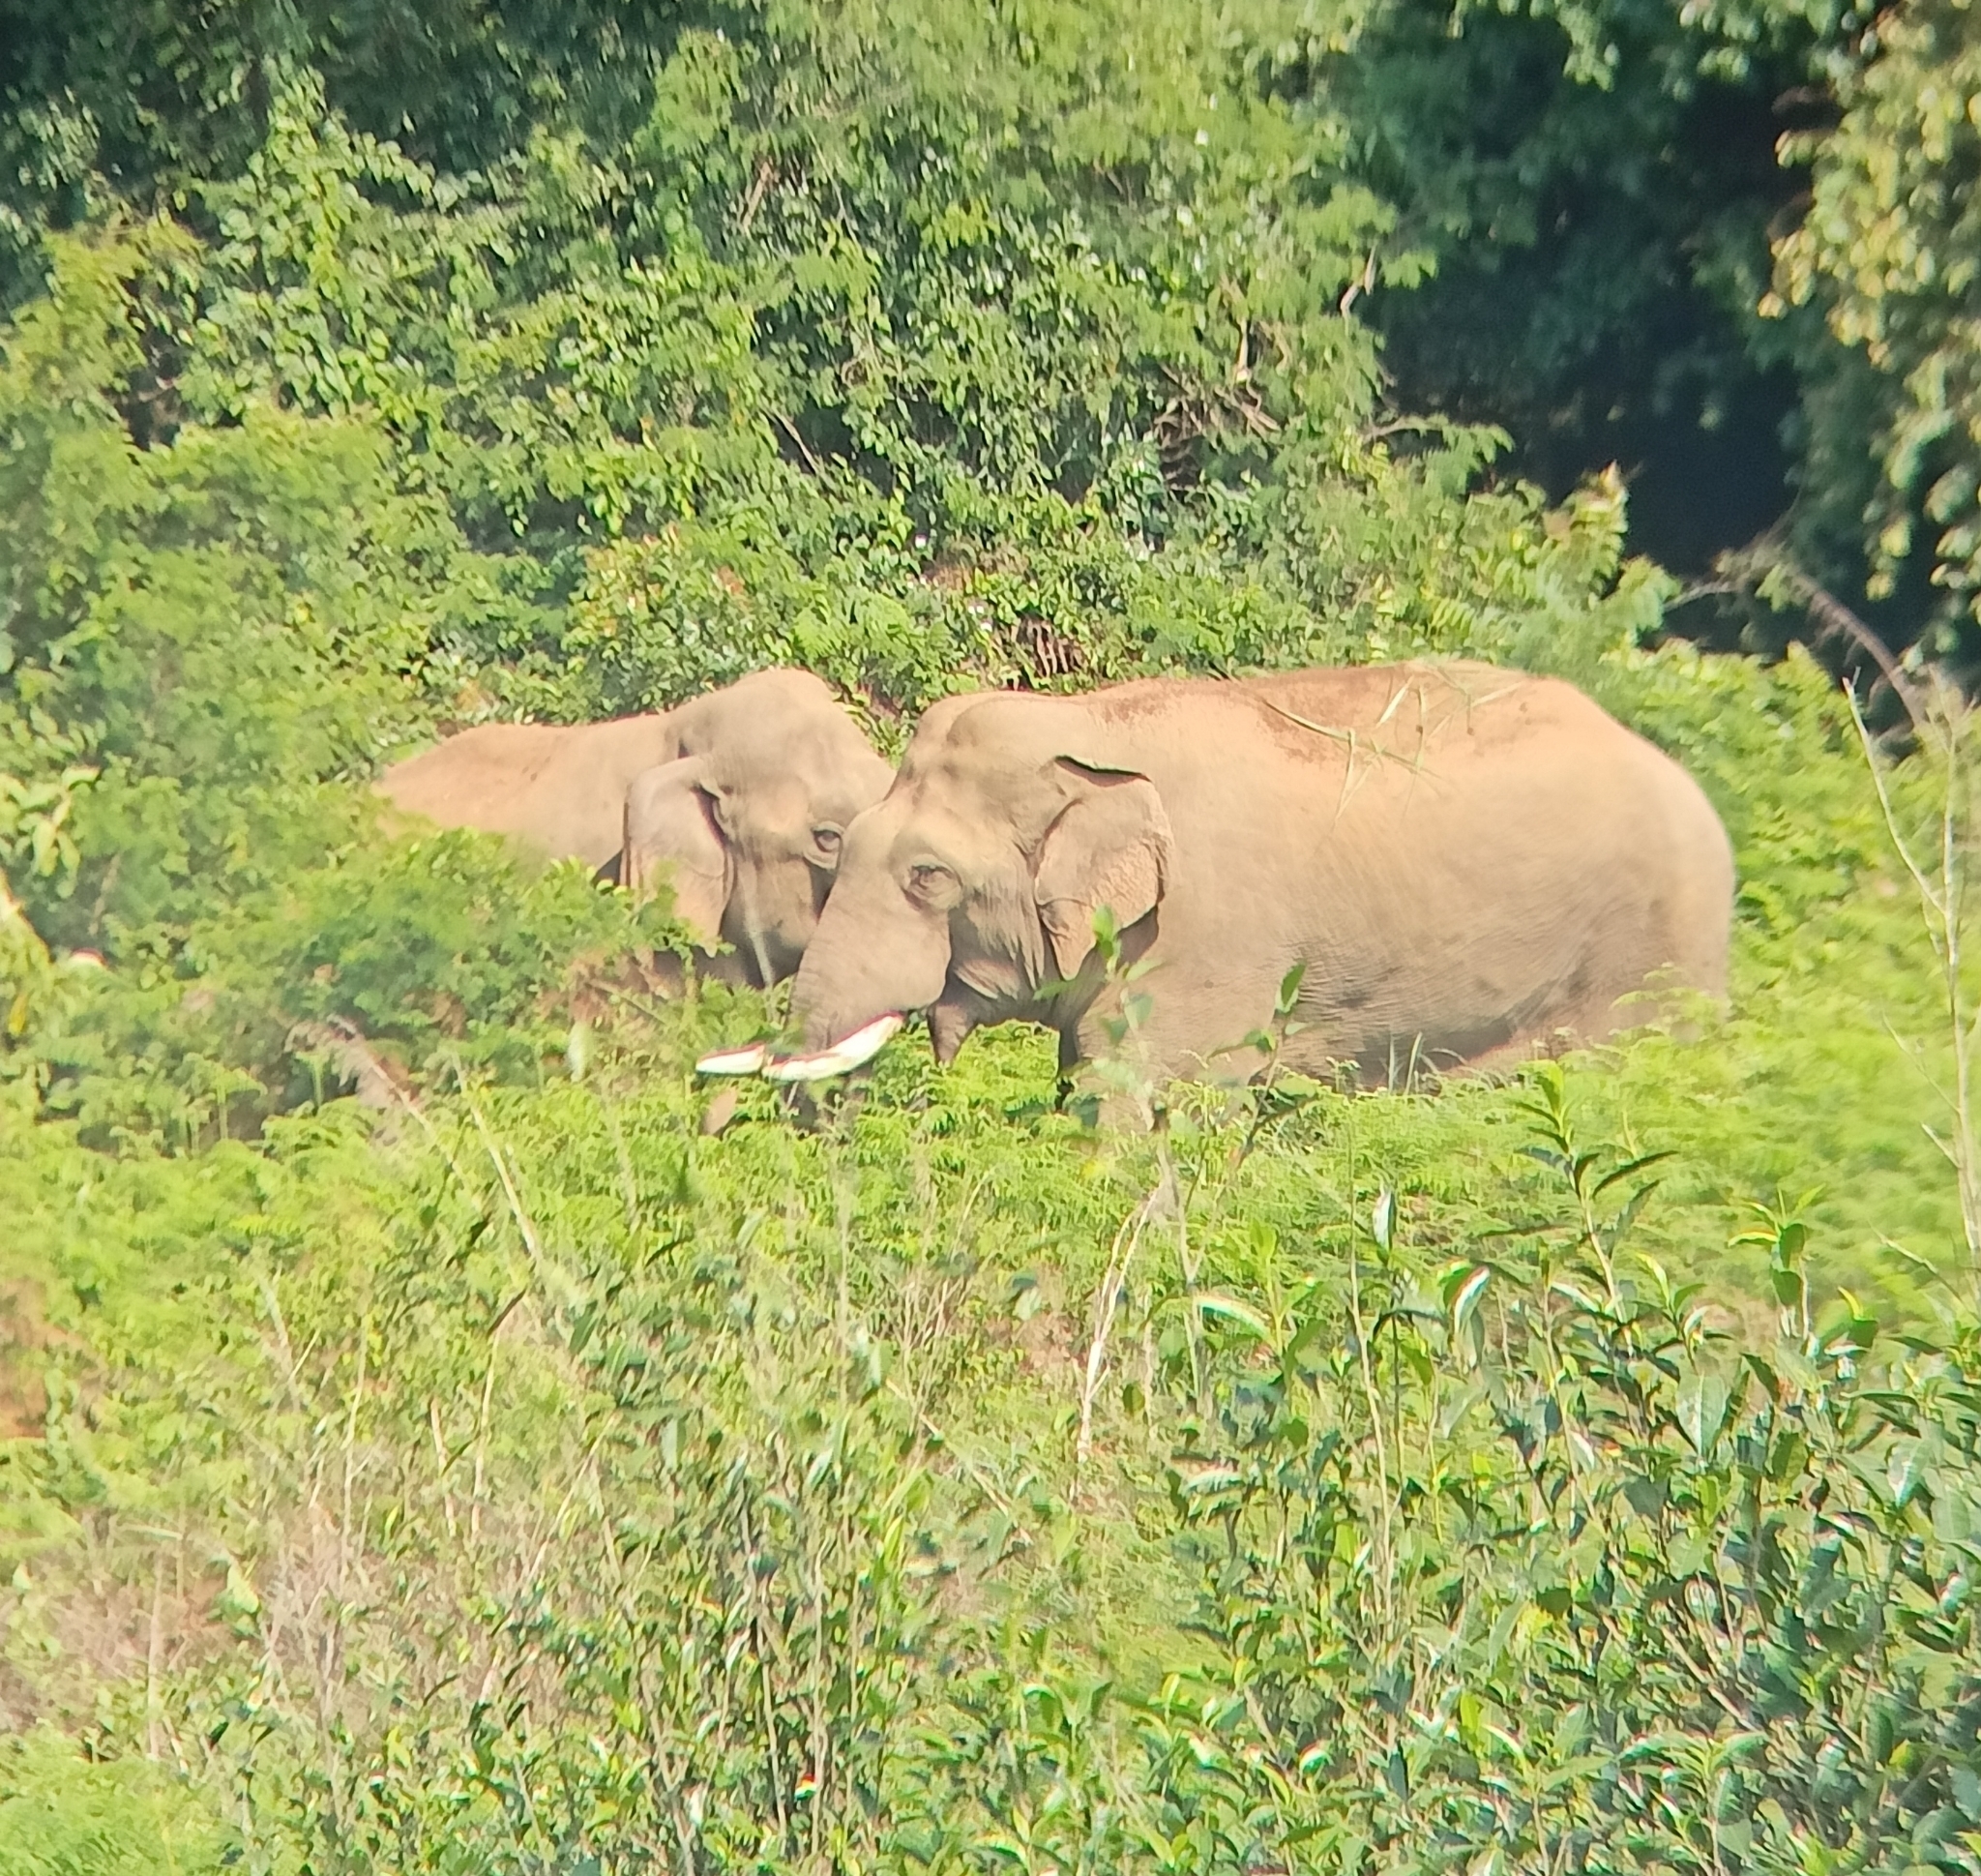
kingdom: Animalia
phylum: Chordata
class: Mammalia
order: Proboscidea
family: Elephantidae
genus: Elephas
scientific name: Elephas maximus
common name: Asian elephant
